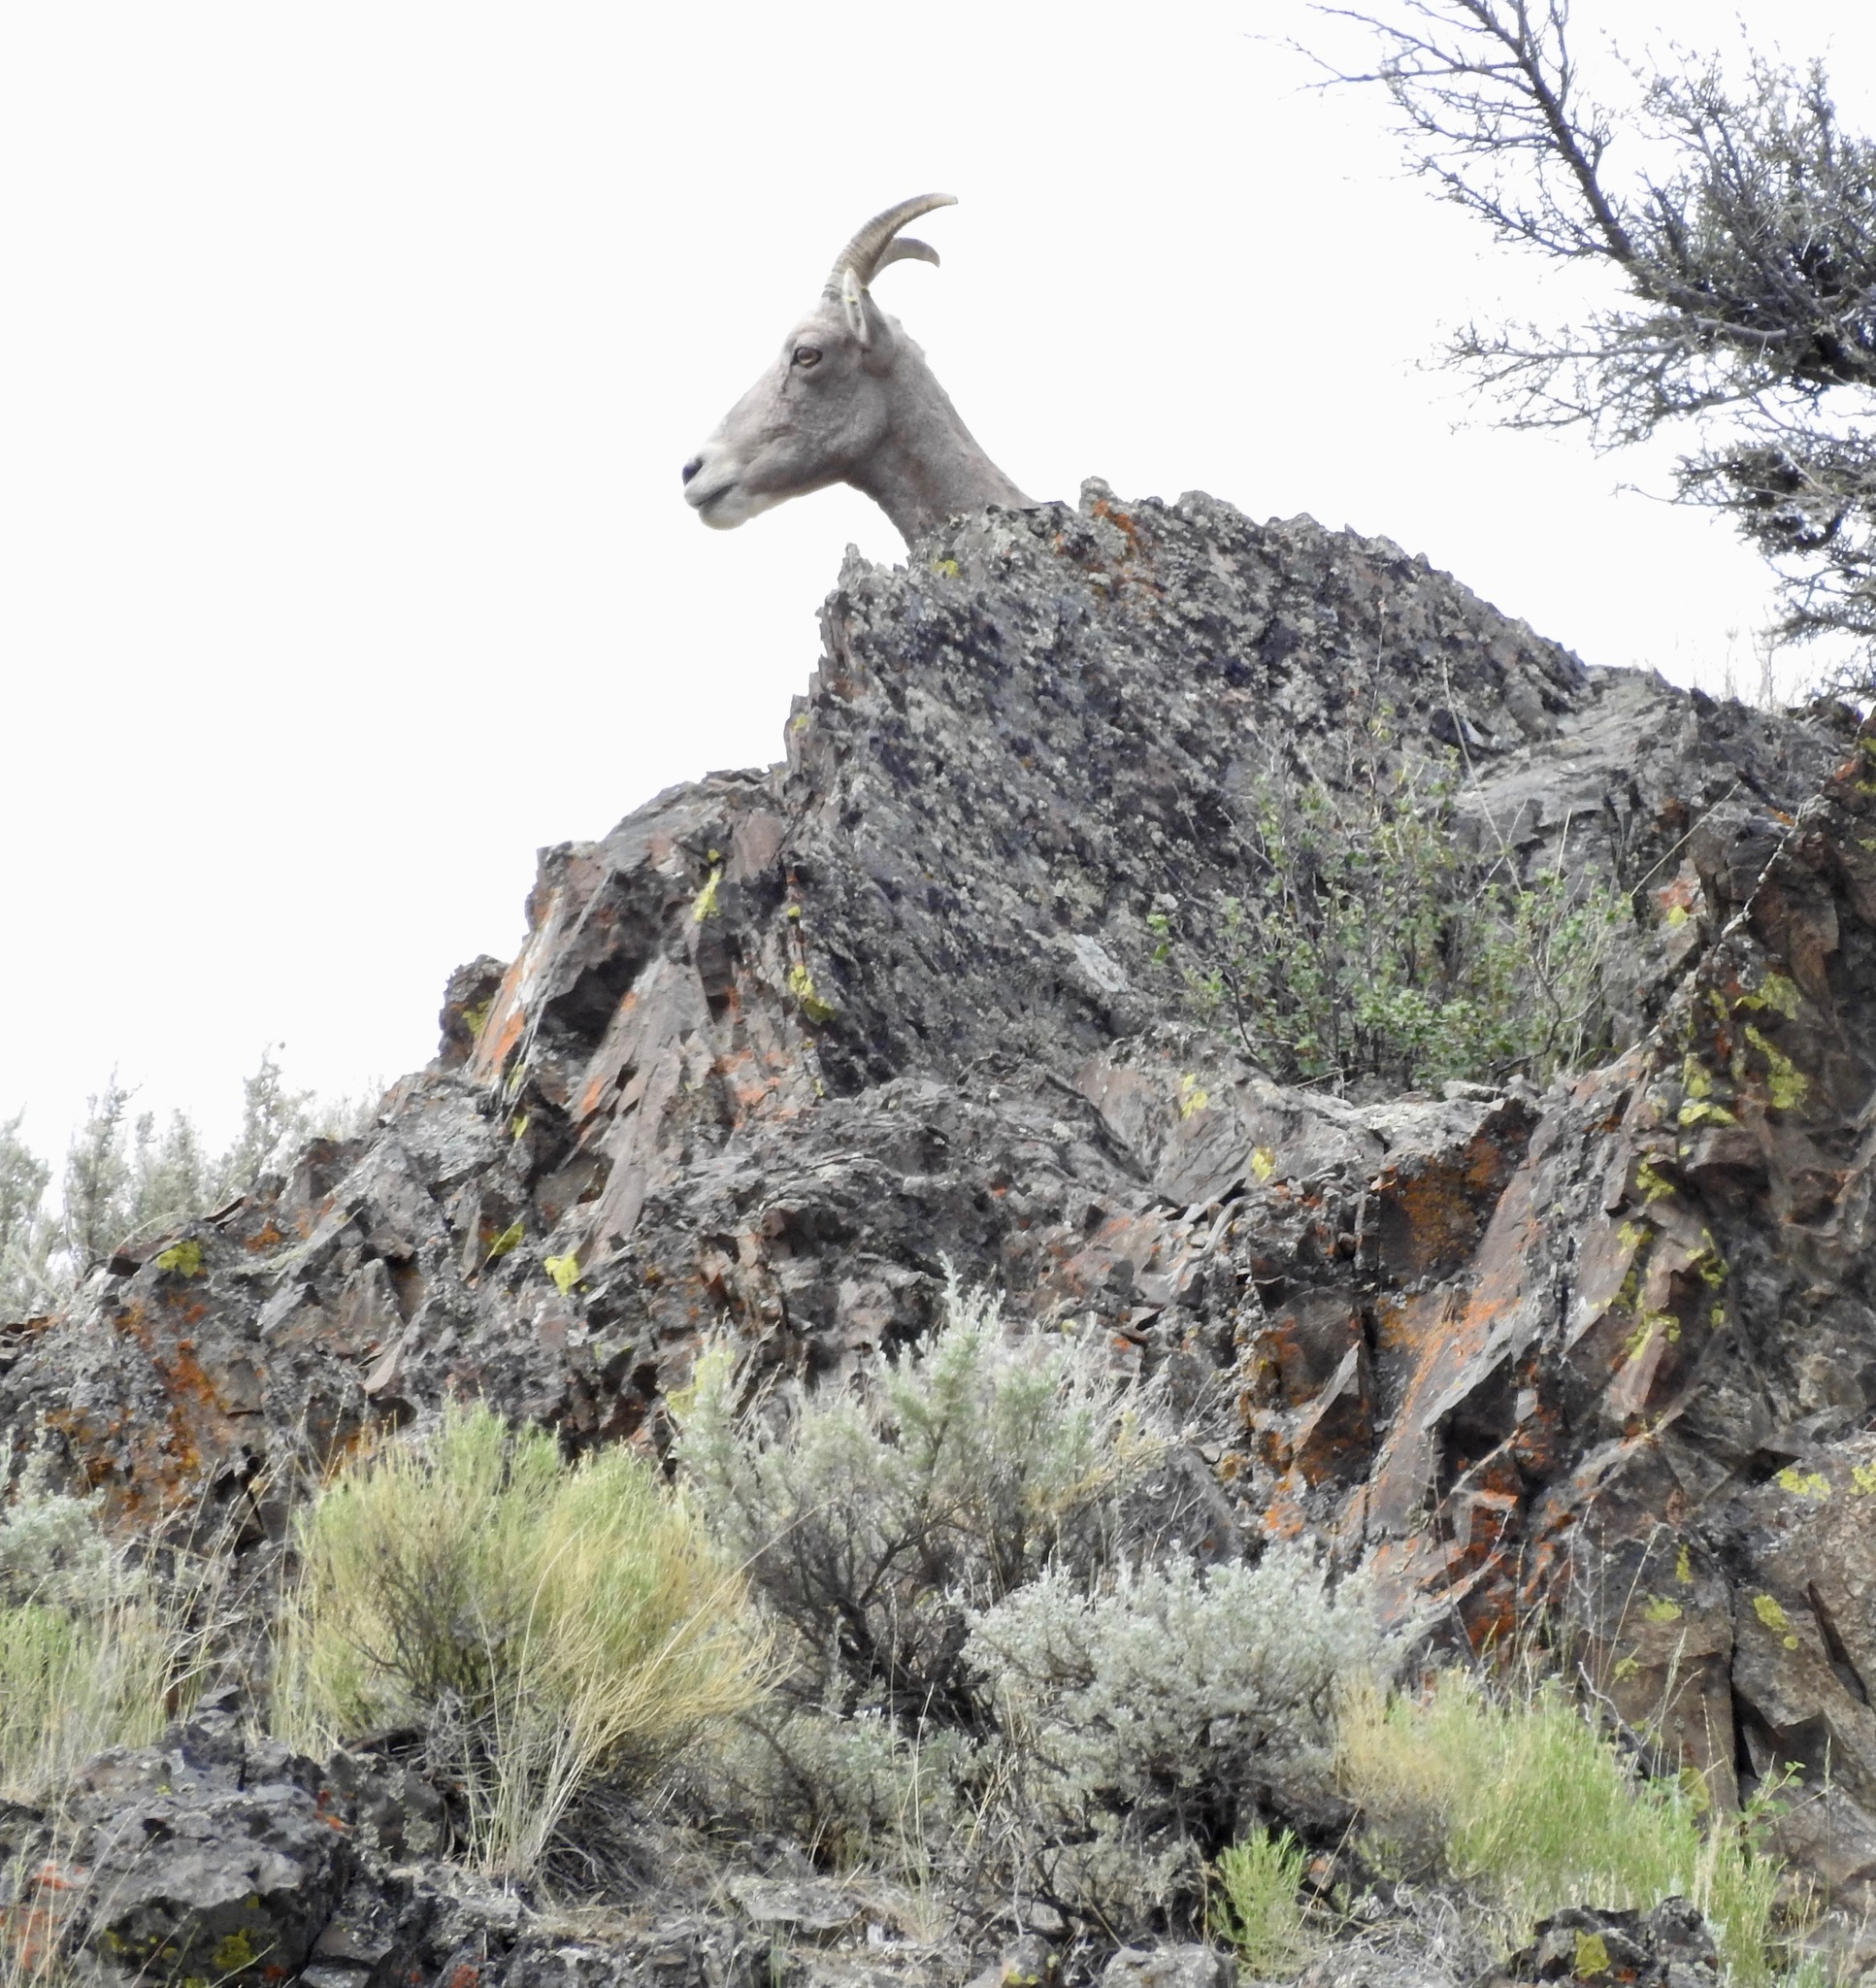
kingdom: Animalia
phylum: Chordata
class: Mammalia
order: Artiodactyla
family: Bovidae
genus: Ovis
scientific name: Ovis canadensis
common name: Bighorn sheep
